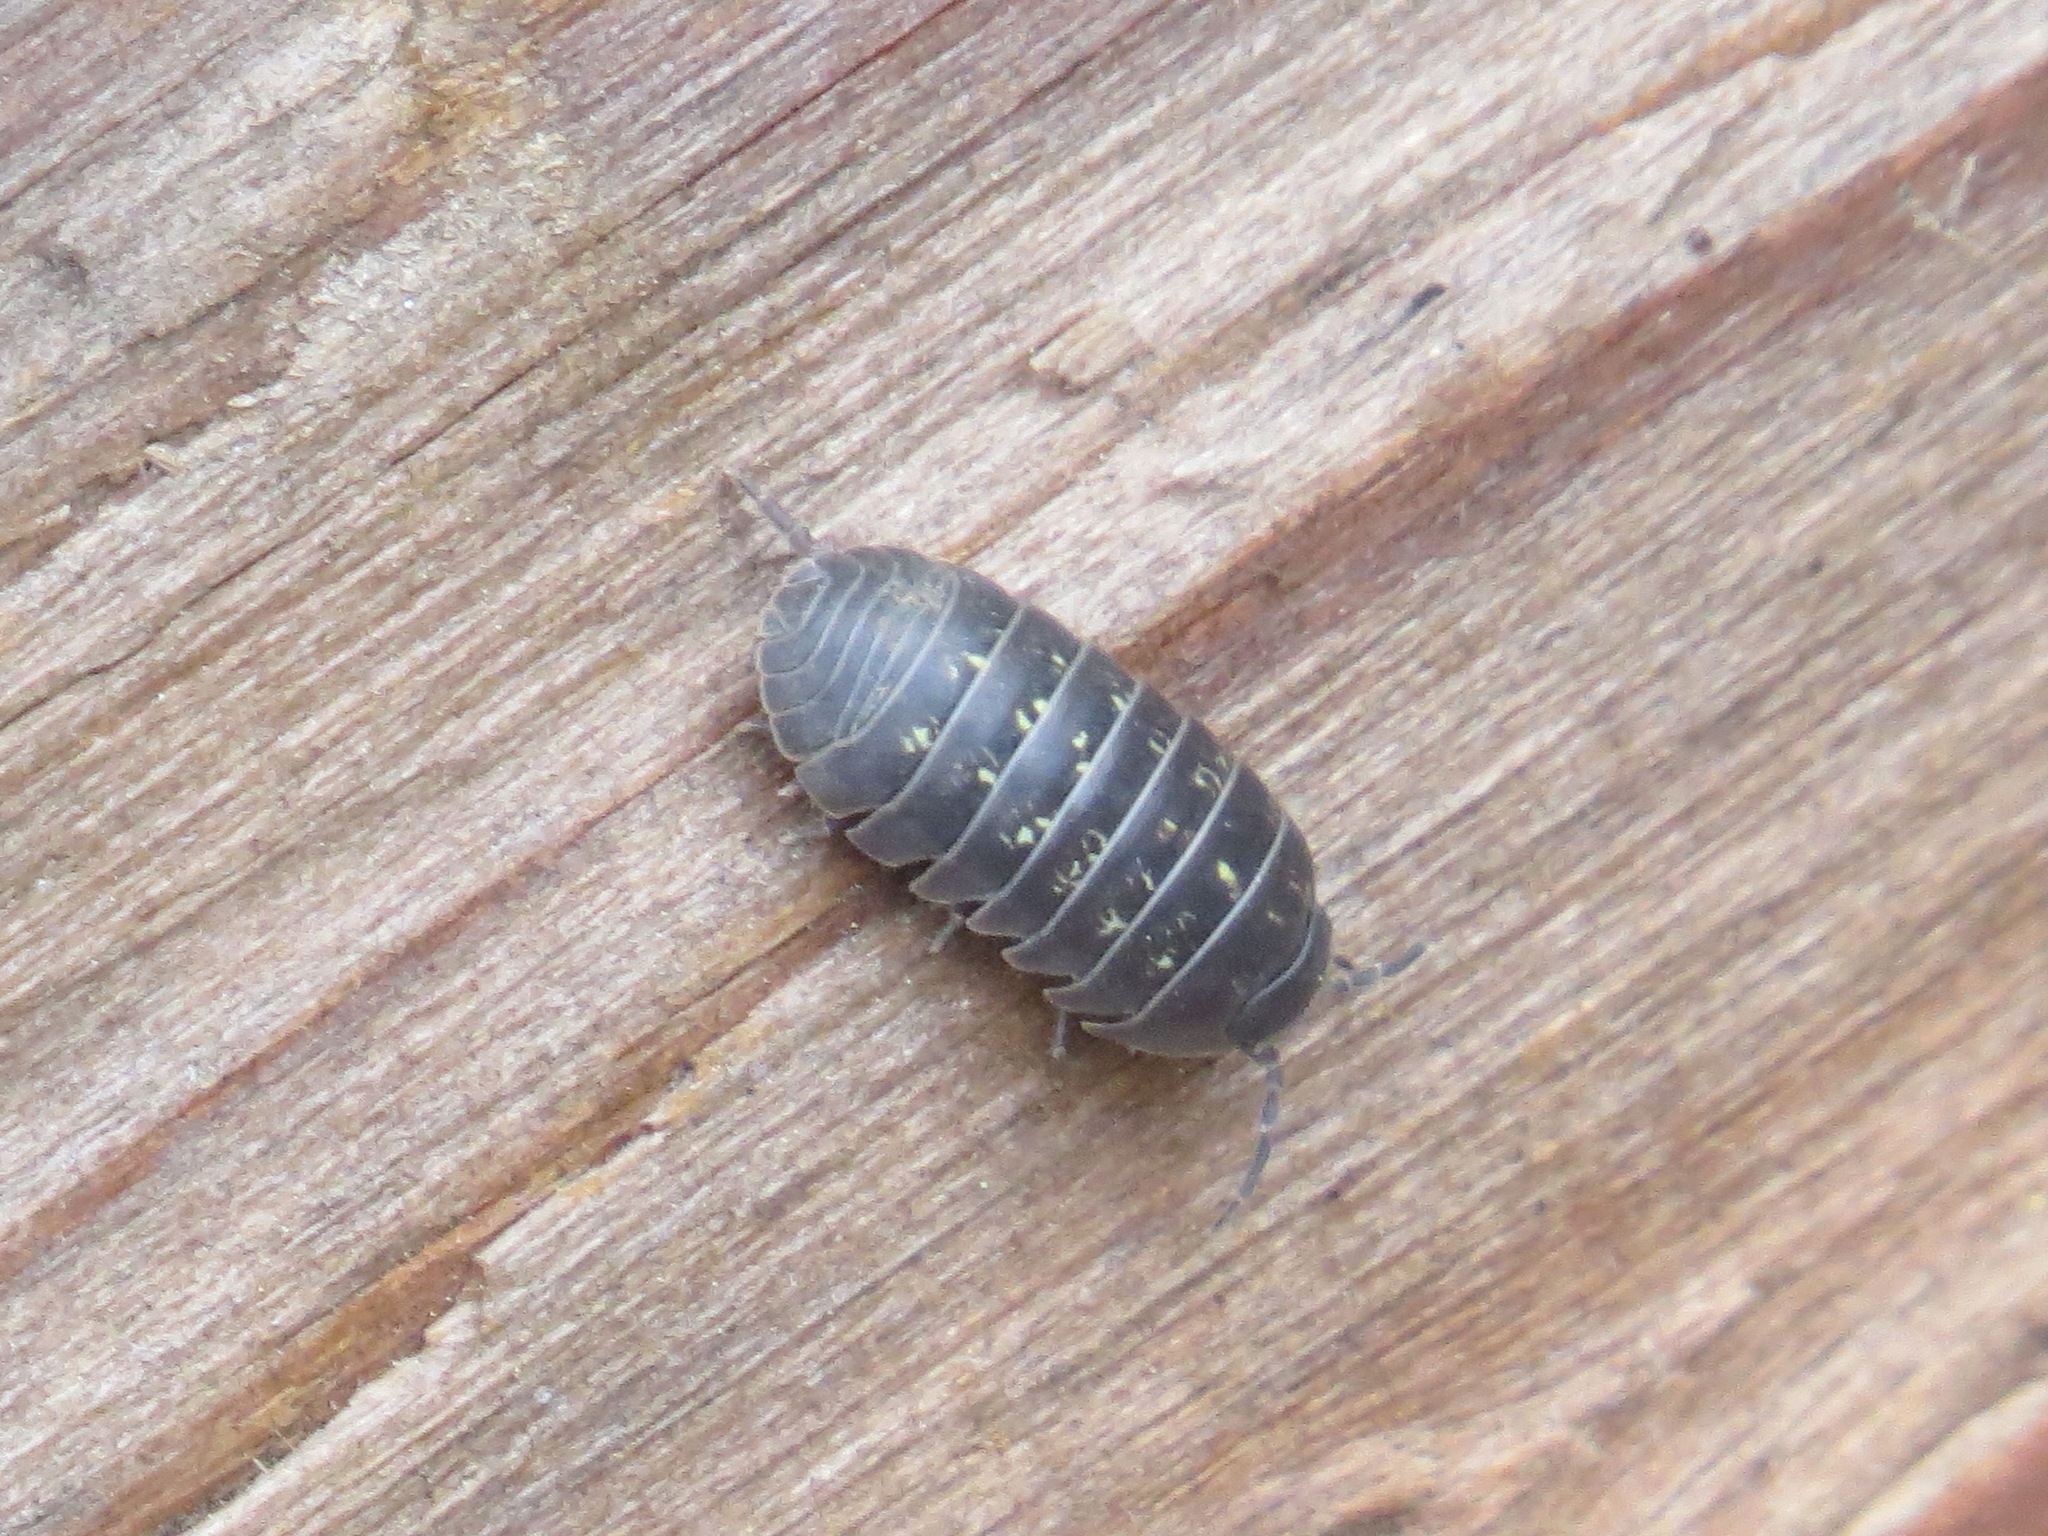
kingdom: Animalia
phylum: Arthropoda
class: Malacostraca
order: Isopoda
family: Armadillidiidae
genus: Armadillidium
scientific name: Armadillidium vulgare
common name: Common pill woodlouse
